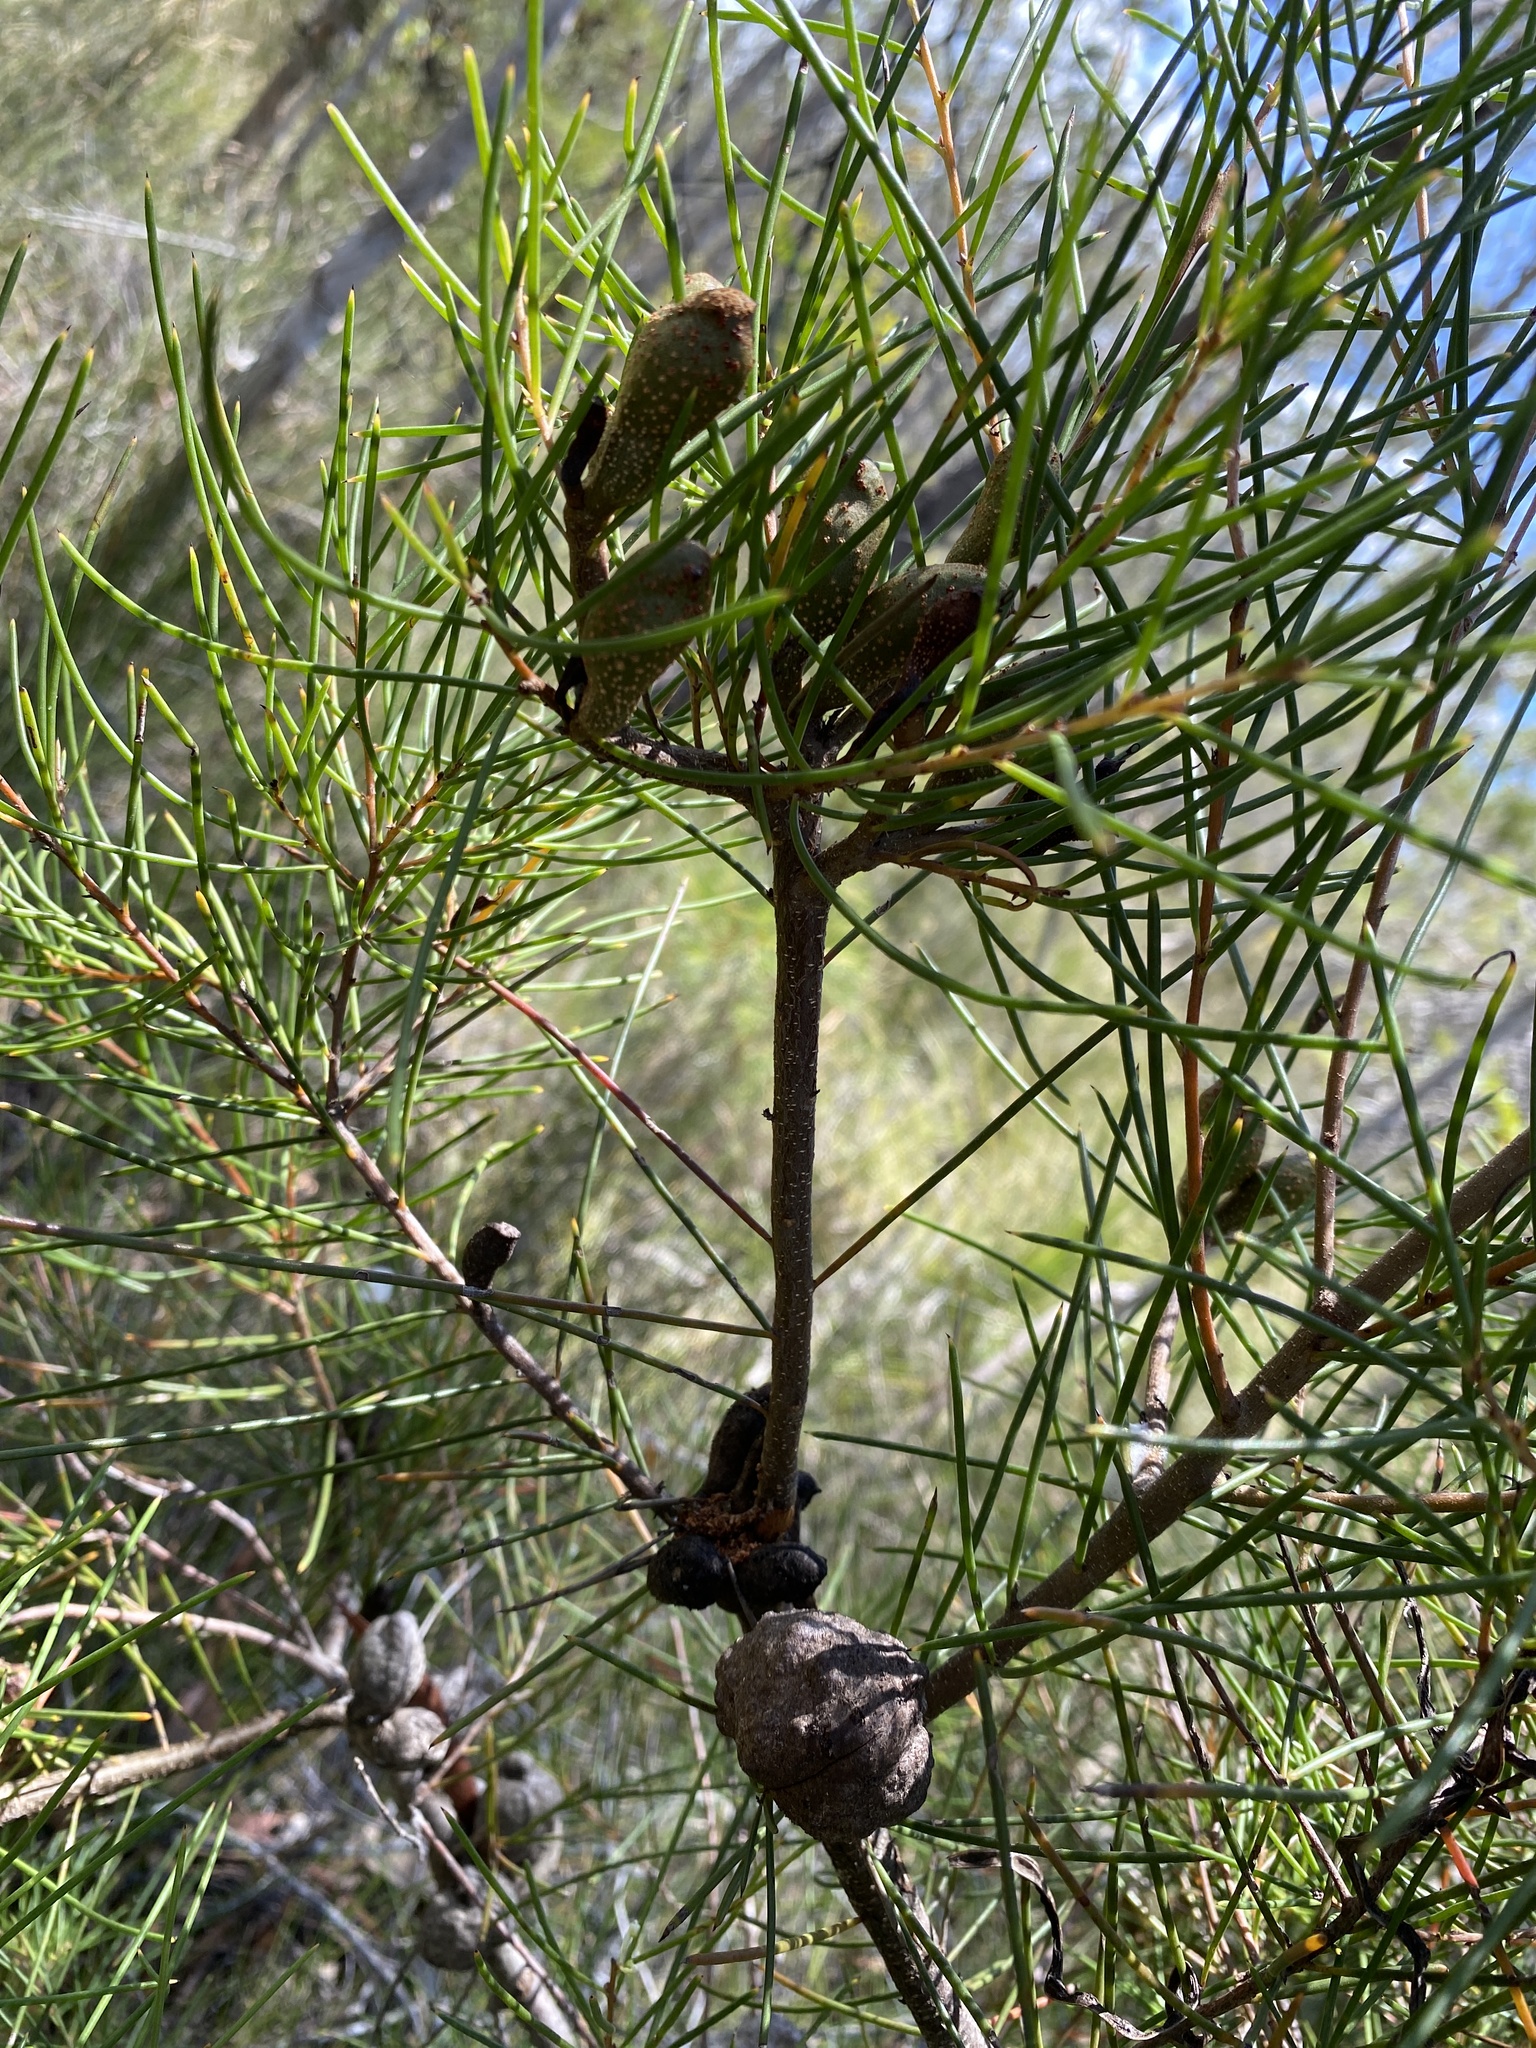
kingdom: Plantae
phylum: Tracheophyta
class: Magnoliopsida
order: Proteales
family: Proteaceae
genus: Hakea
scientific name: Hakea actites
